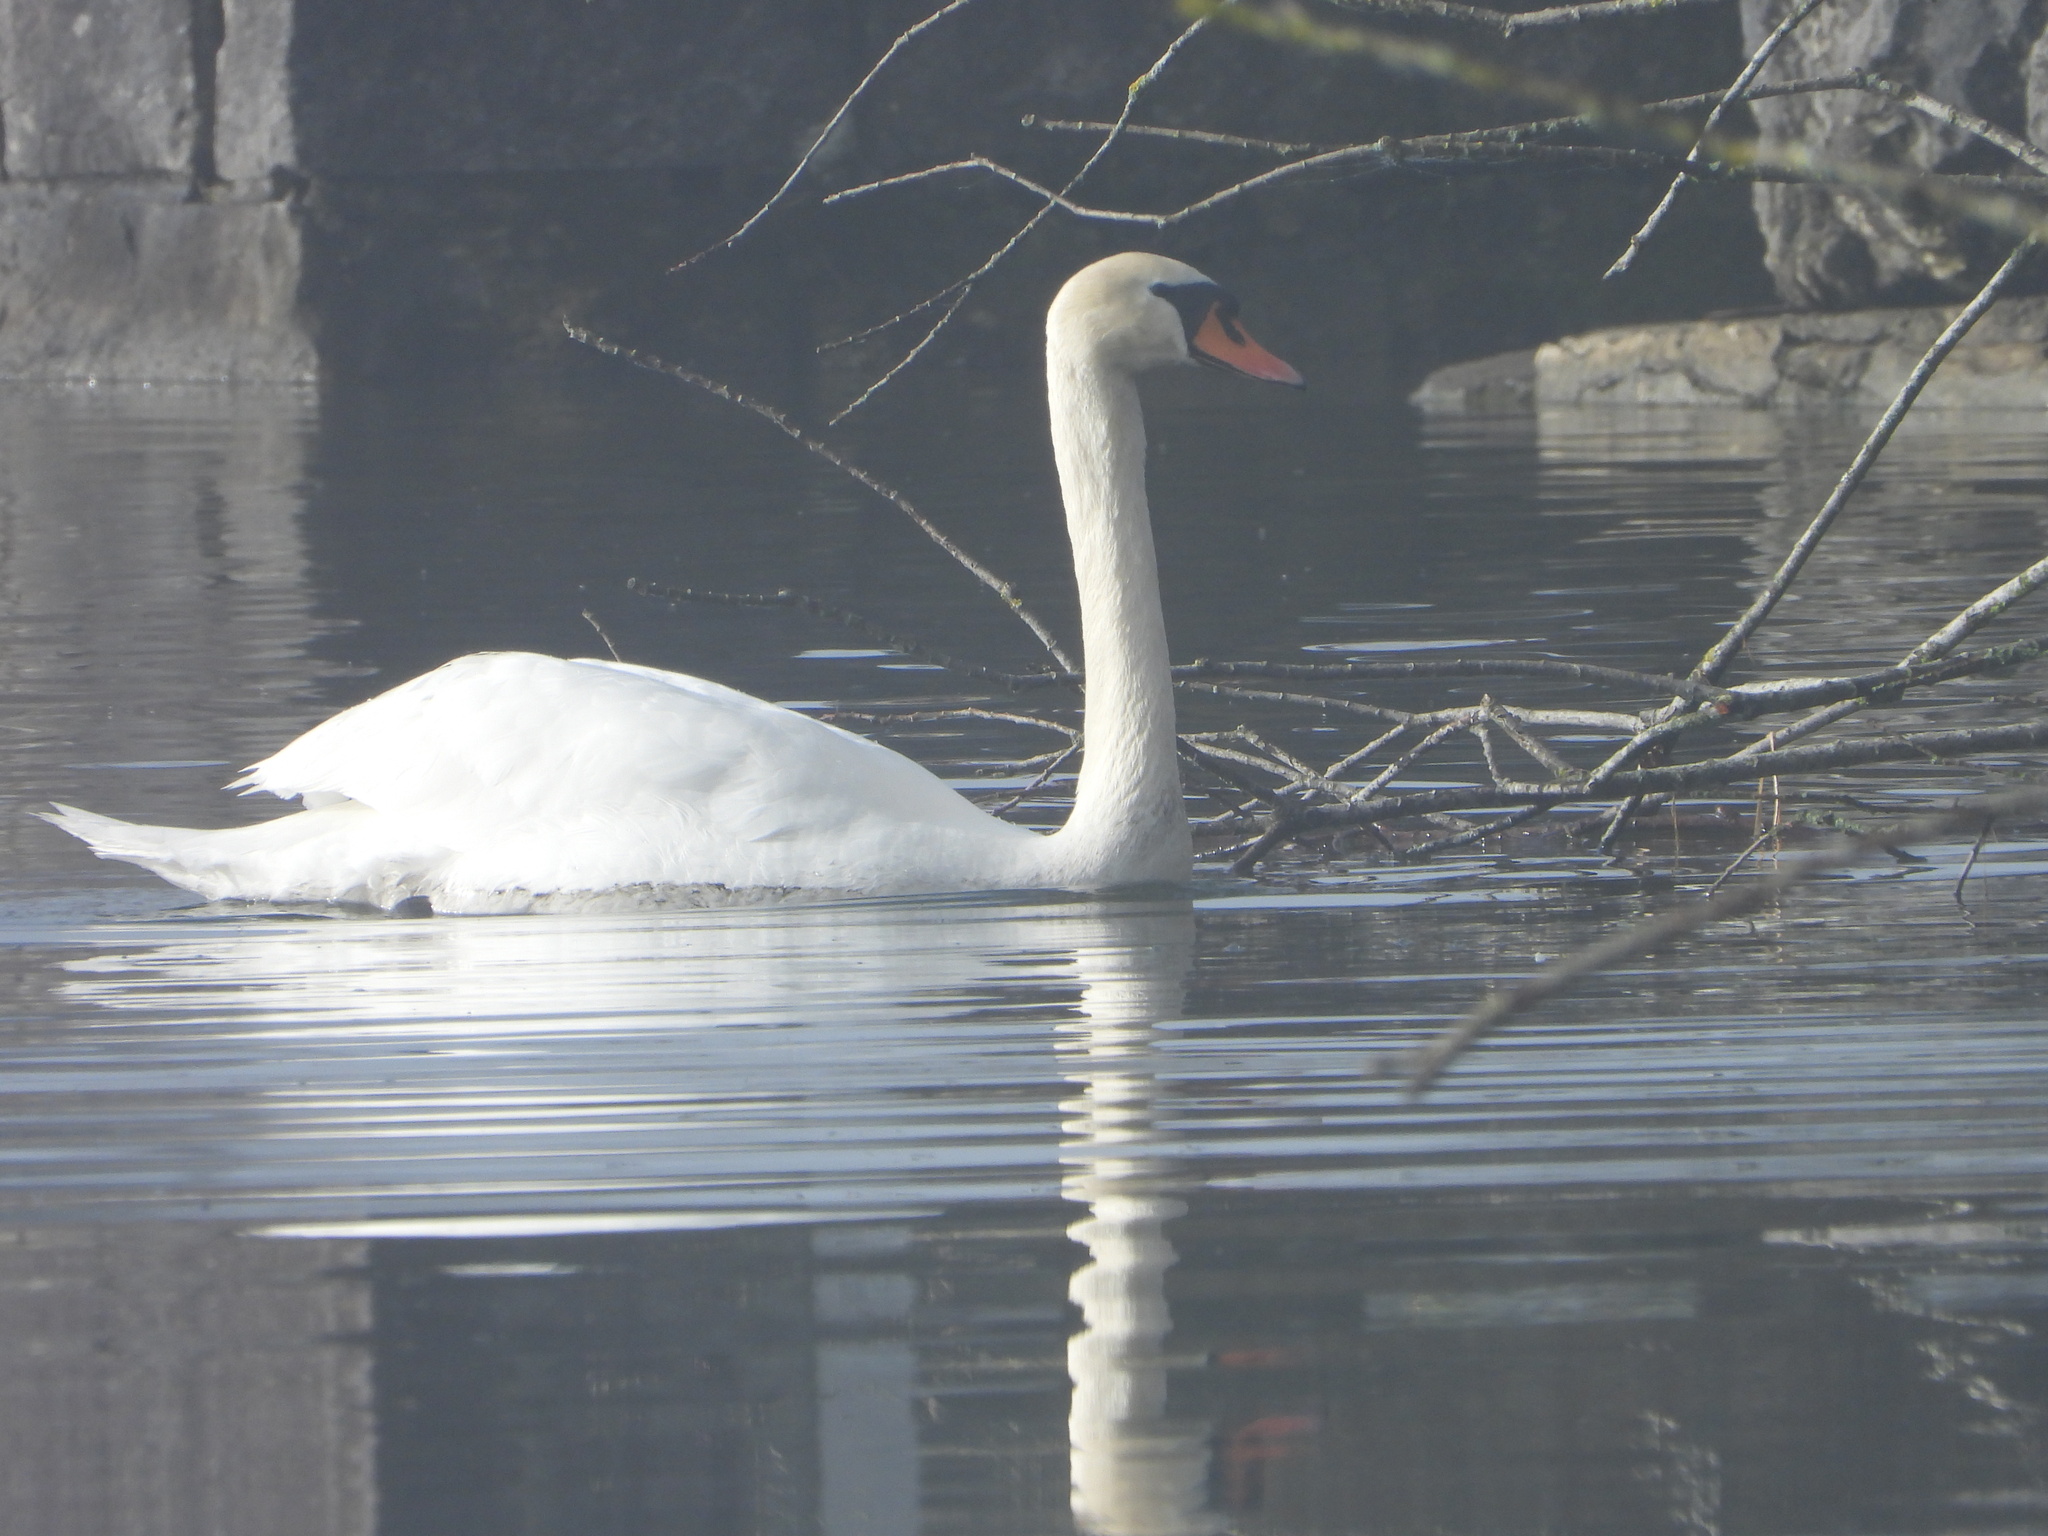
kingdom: Animalia
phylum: Chordata
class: Aves
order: Anseriformes
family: Anatidae
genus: Cygnus
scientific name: Cygnus olor
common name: Mute swan
